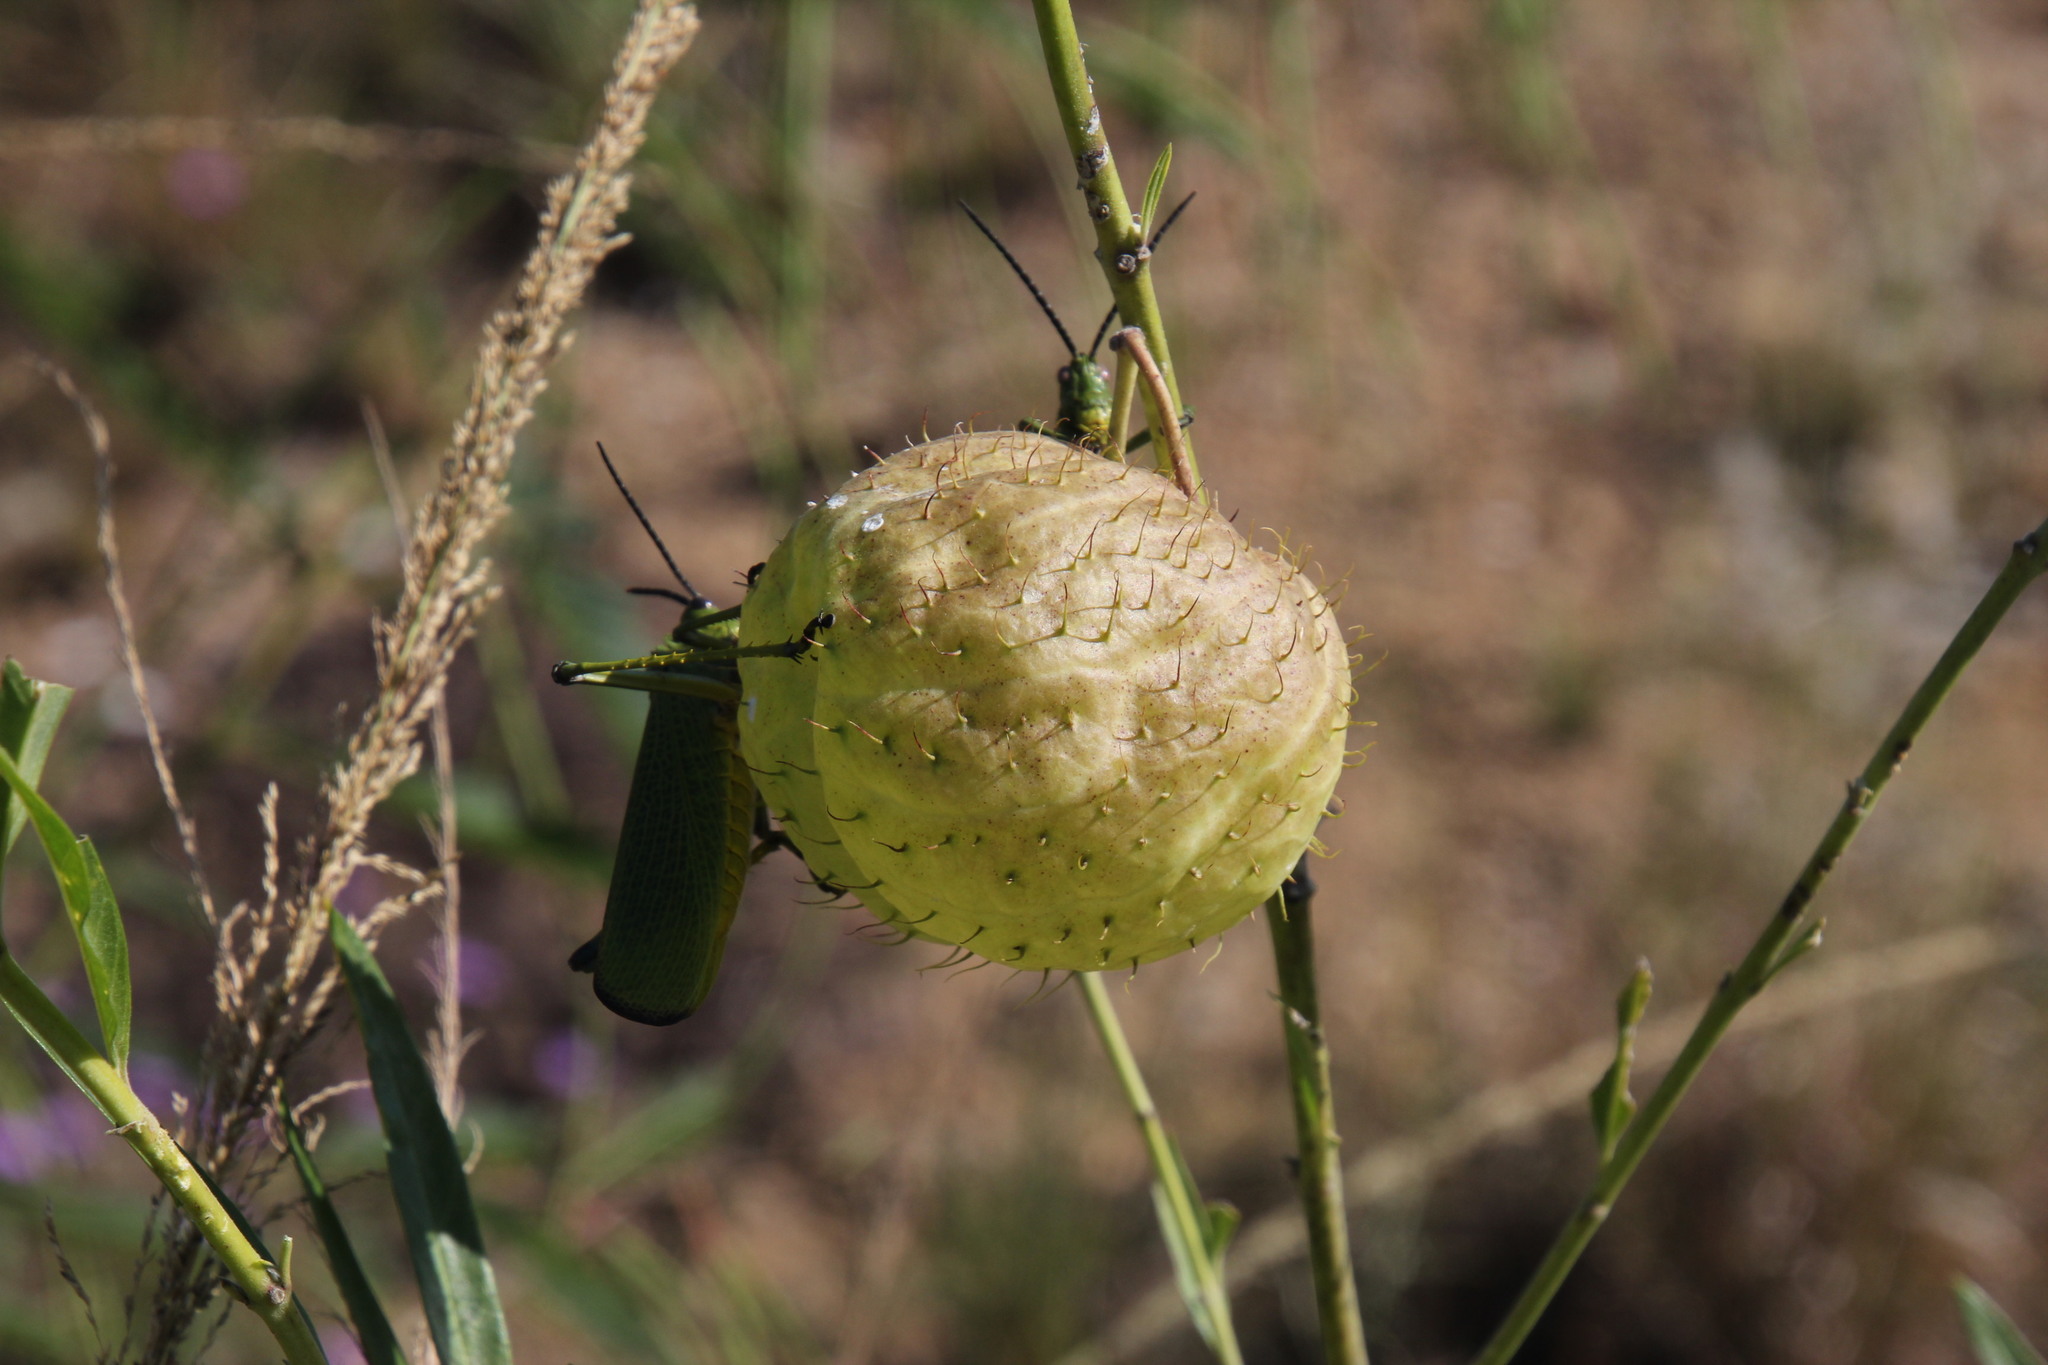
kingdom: Plantae
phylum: Tracheophyta
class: Magnoliopsida
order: Gentianales
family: Apocynaceae
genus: Gomphocarpus
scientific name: Gomphocarpus physocarpus
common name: Balloon cotton bush
